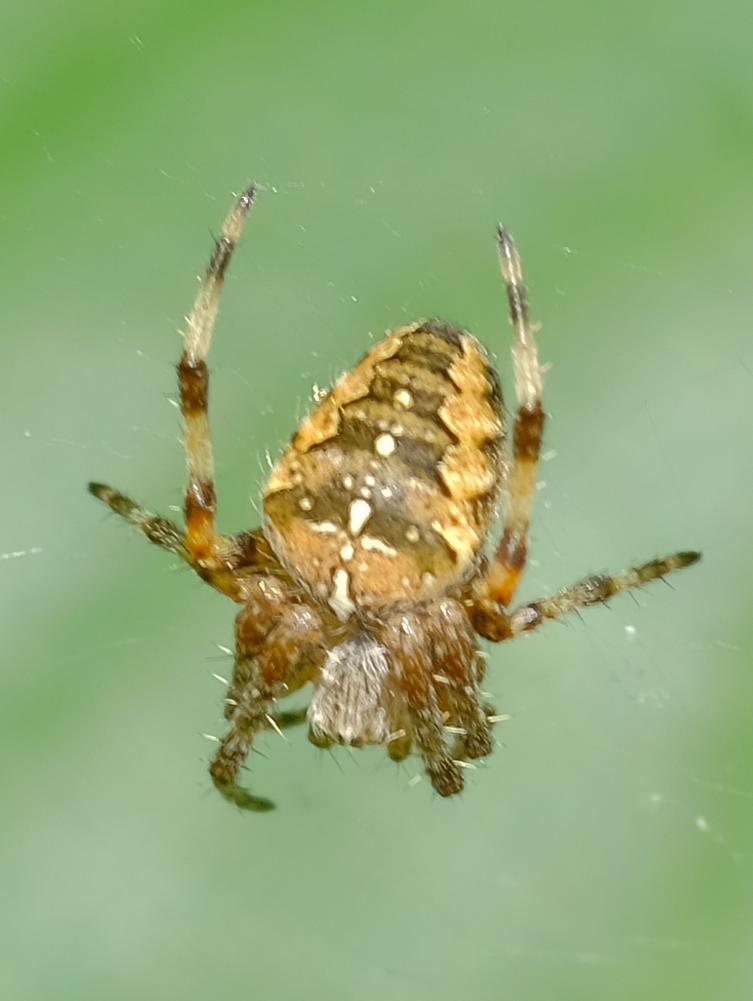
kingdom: Animalia
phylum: Arthropoda
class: Arachnida
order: Araneae
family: Araneidae
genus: Araneus
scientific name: Araneus diadematus
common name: Cross orbweaver
